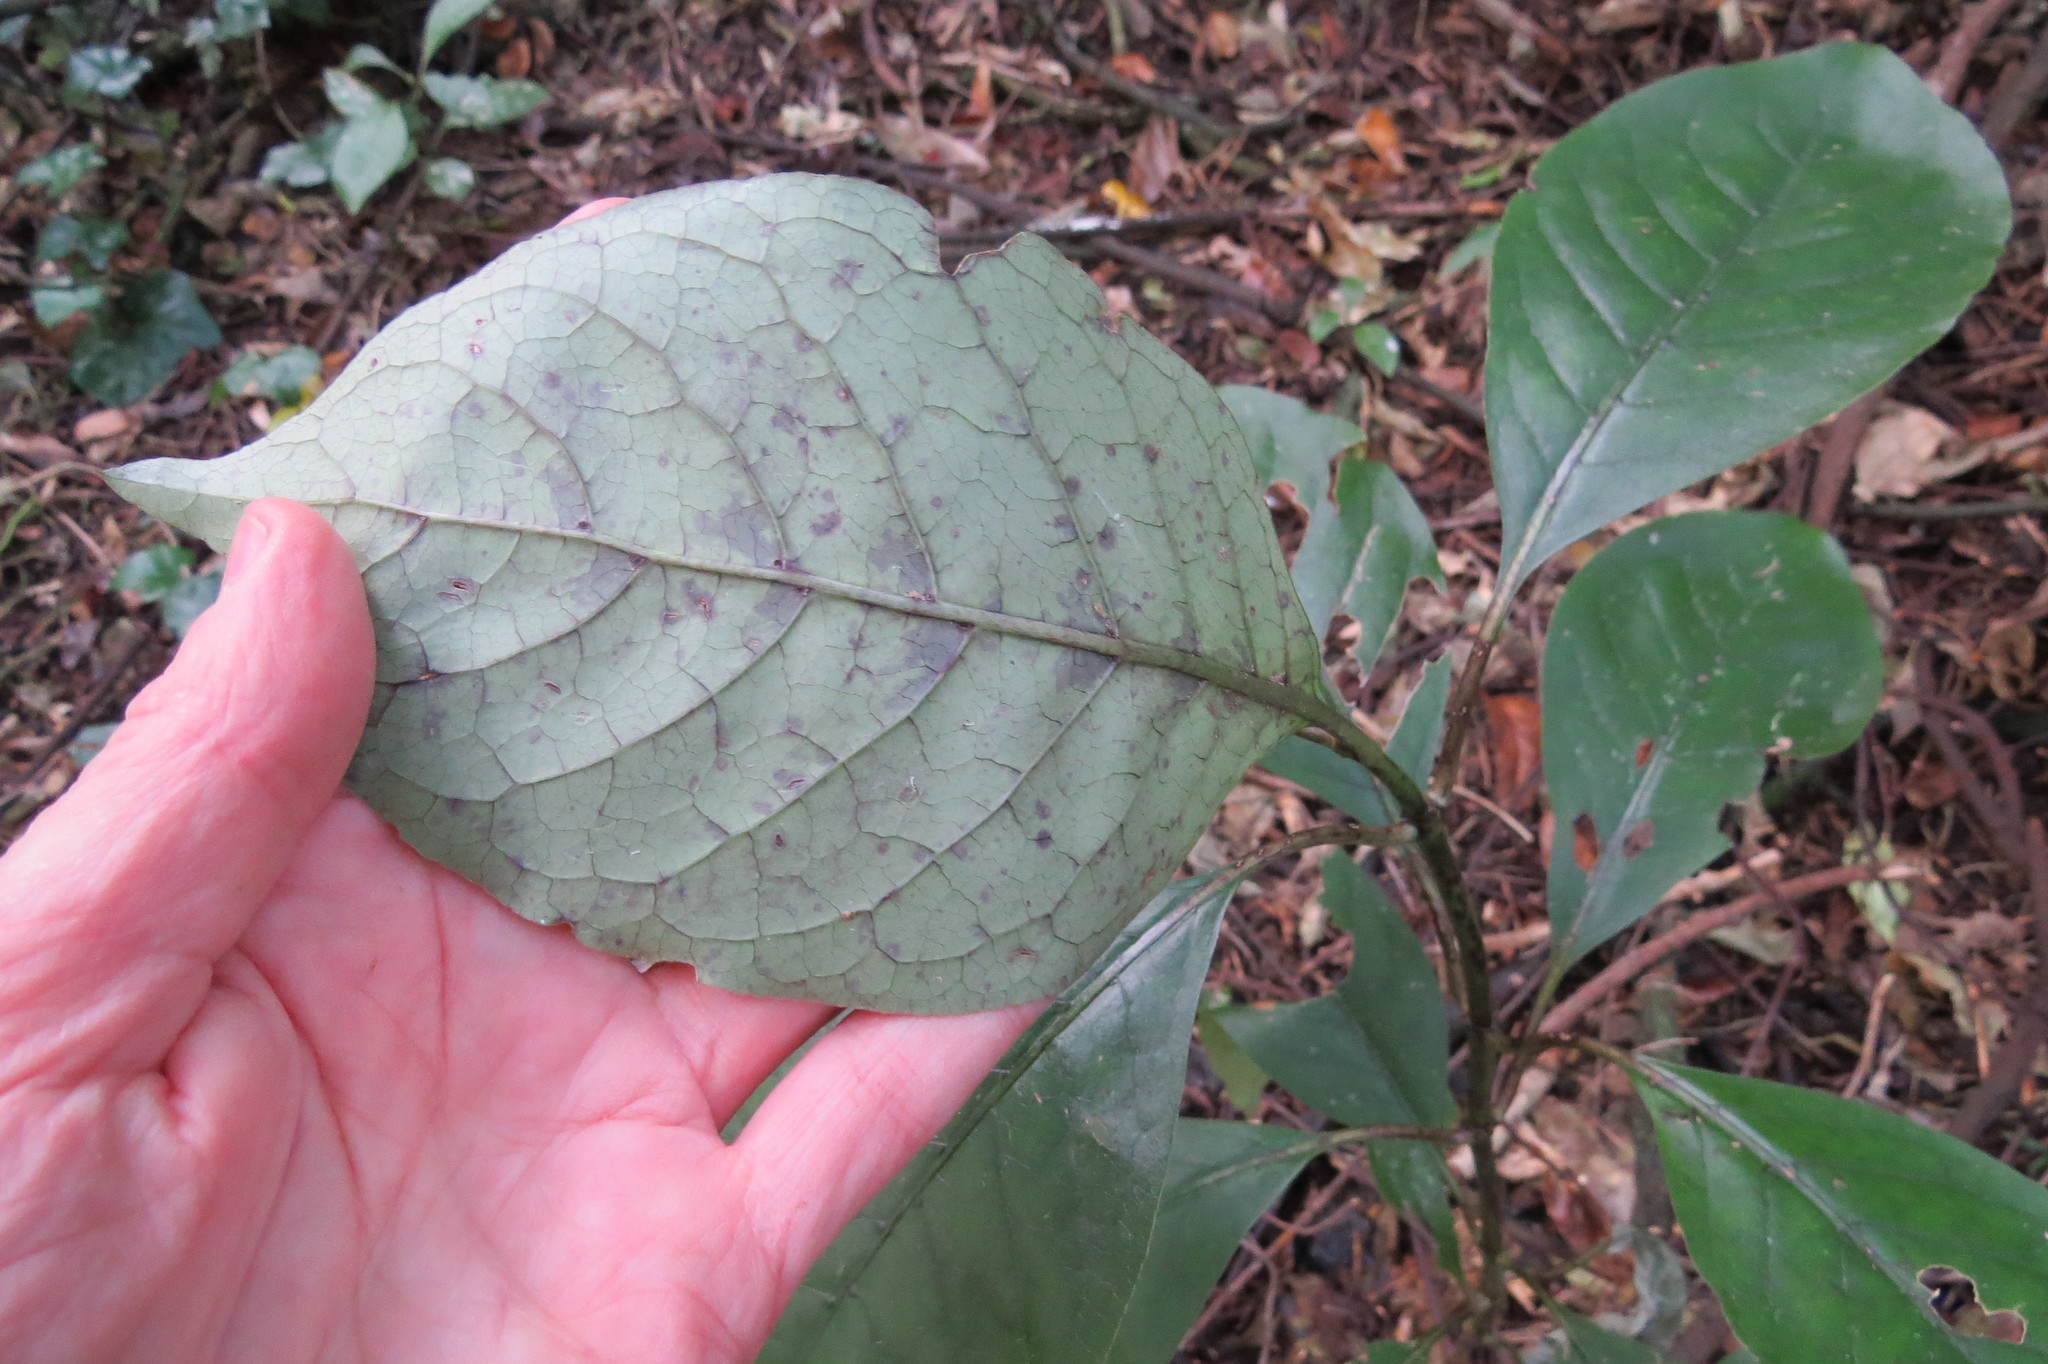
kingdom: Plantae
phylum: Tracheophyta
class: Magnoliopsida
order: Gentianales
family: Rubiaceae
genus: Coprosma
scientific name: Coprosma autumnalis
